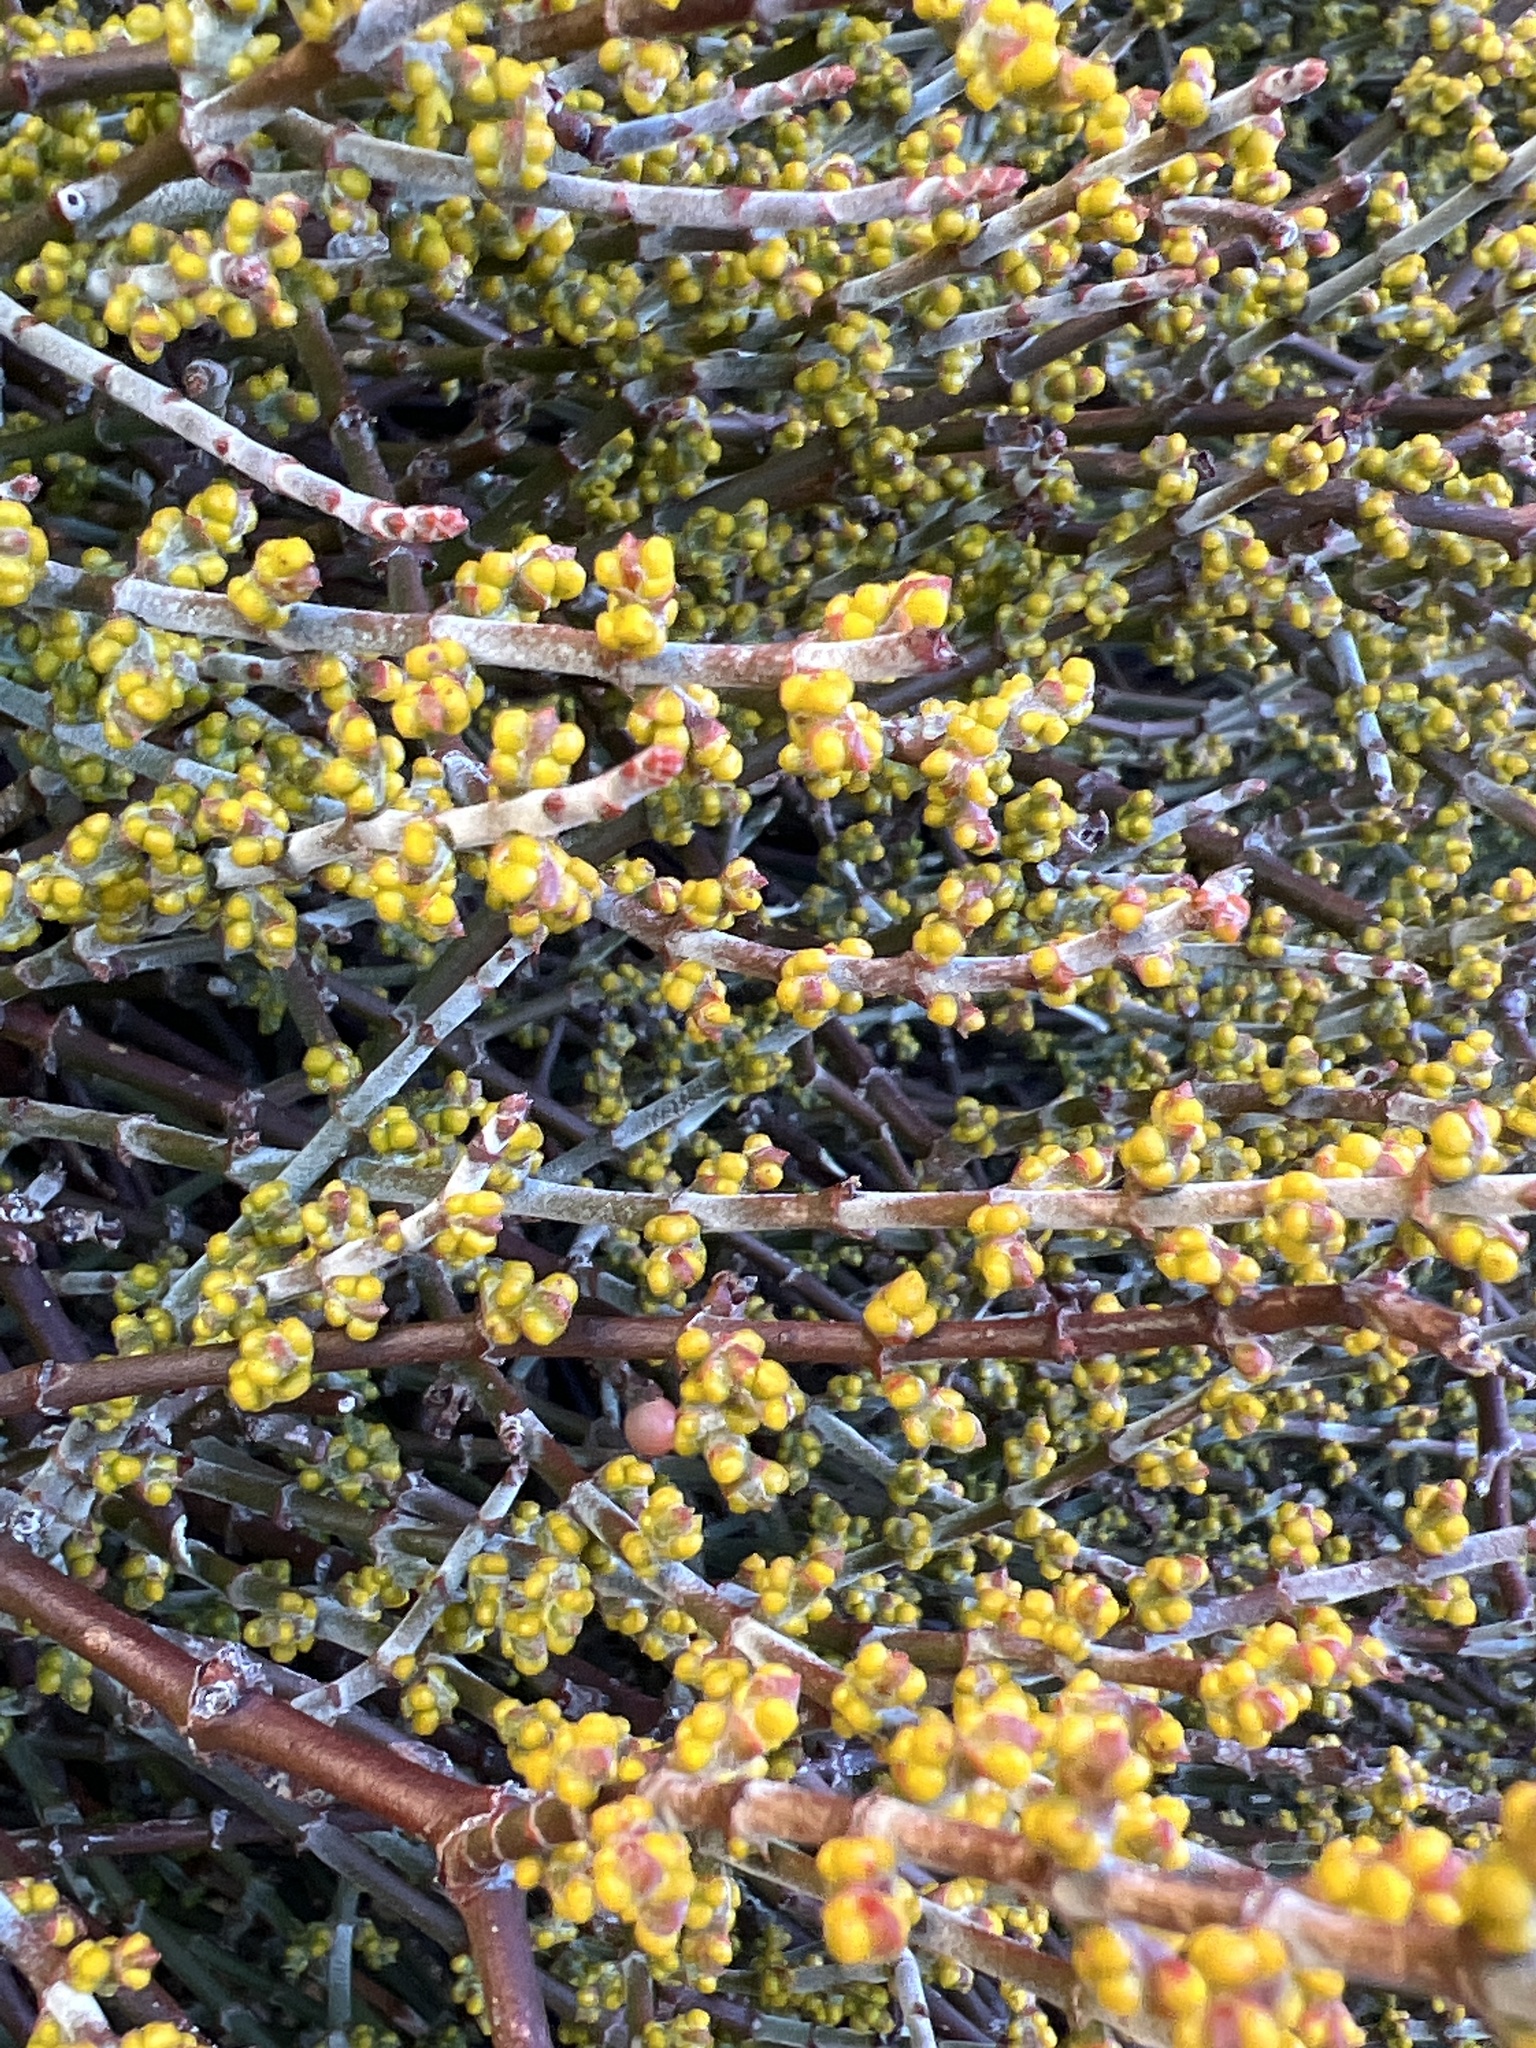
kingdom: Plantae
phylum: Tracheophyta
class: Magnoliopsida
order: Santalales
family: Viscaceae
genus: Phoradendron
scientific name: Phoradendron californicum
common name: Acacia mistletoe
